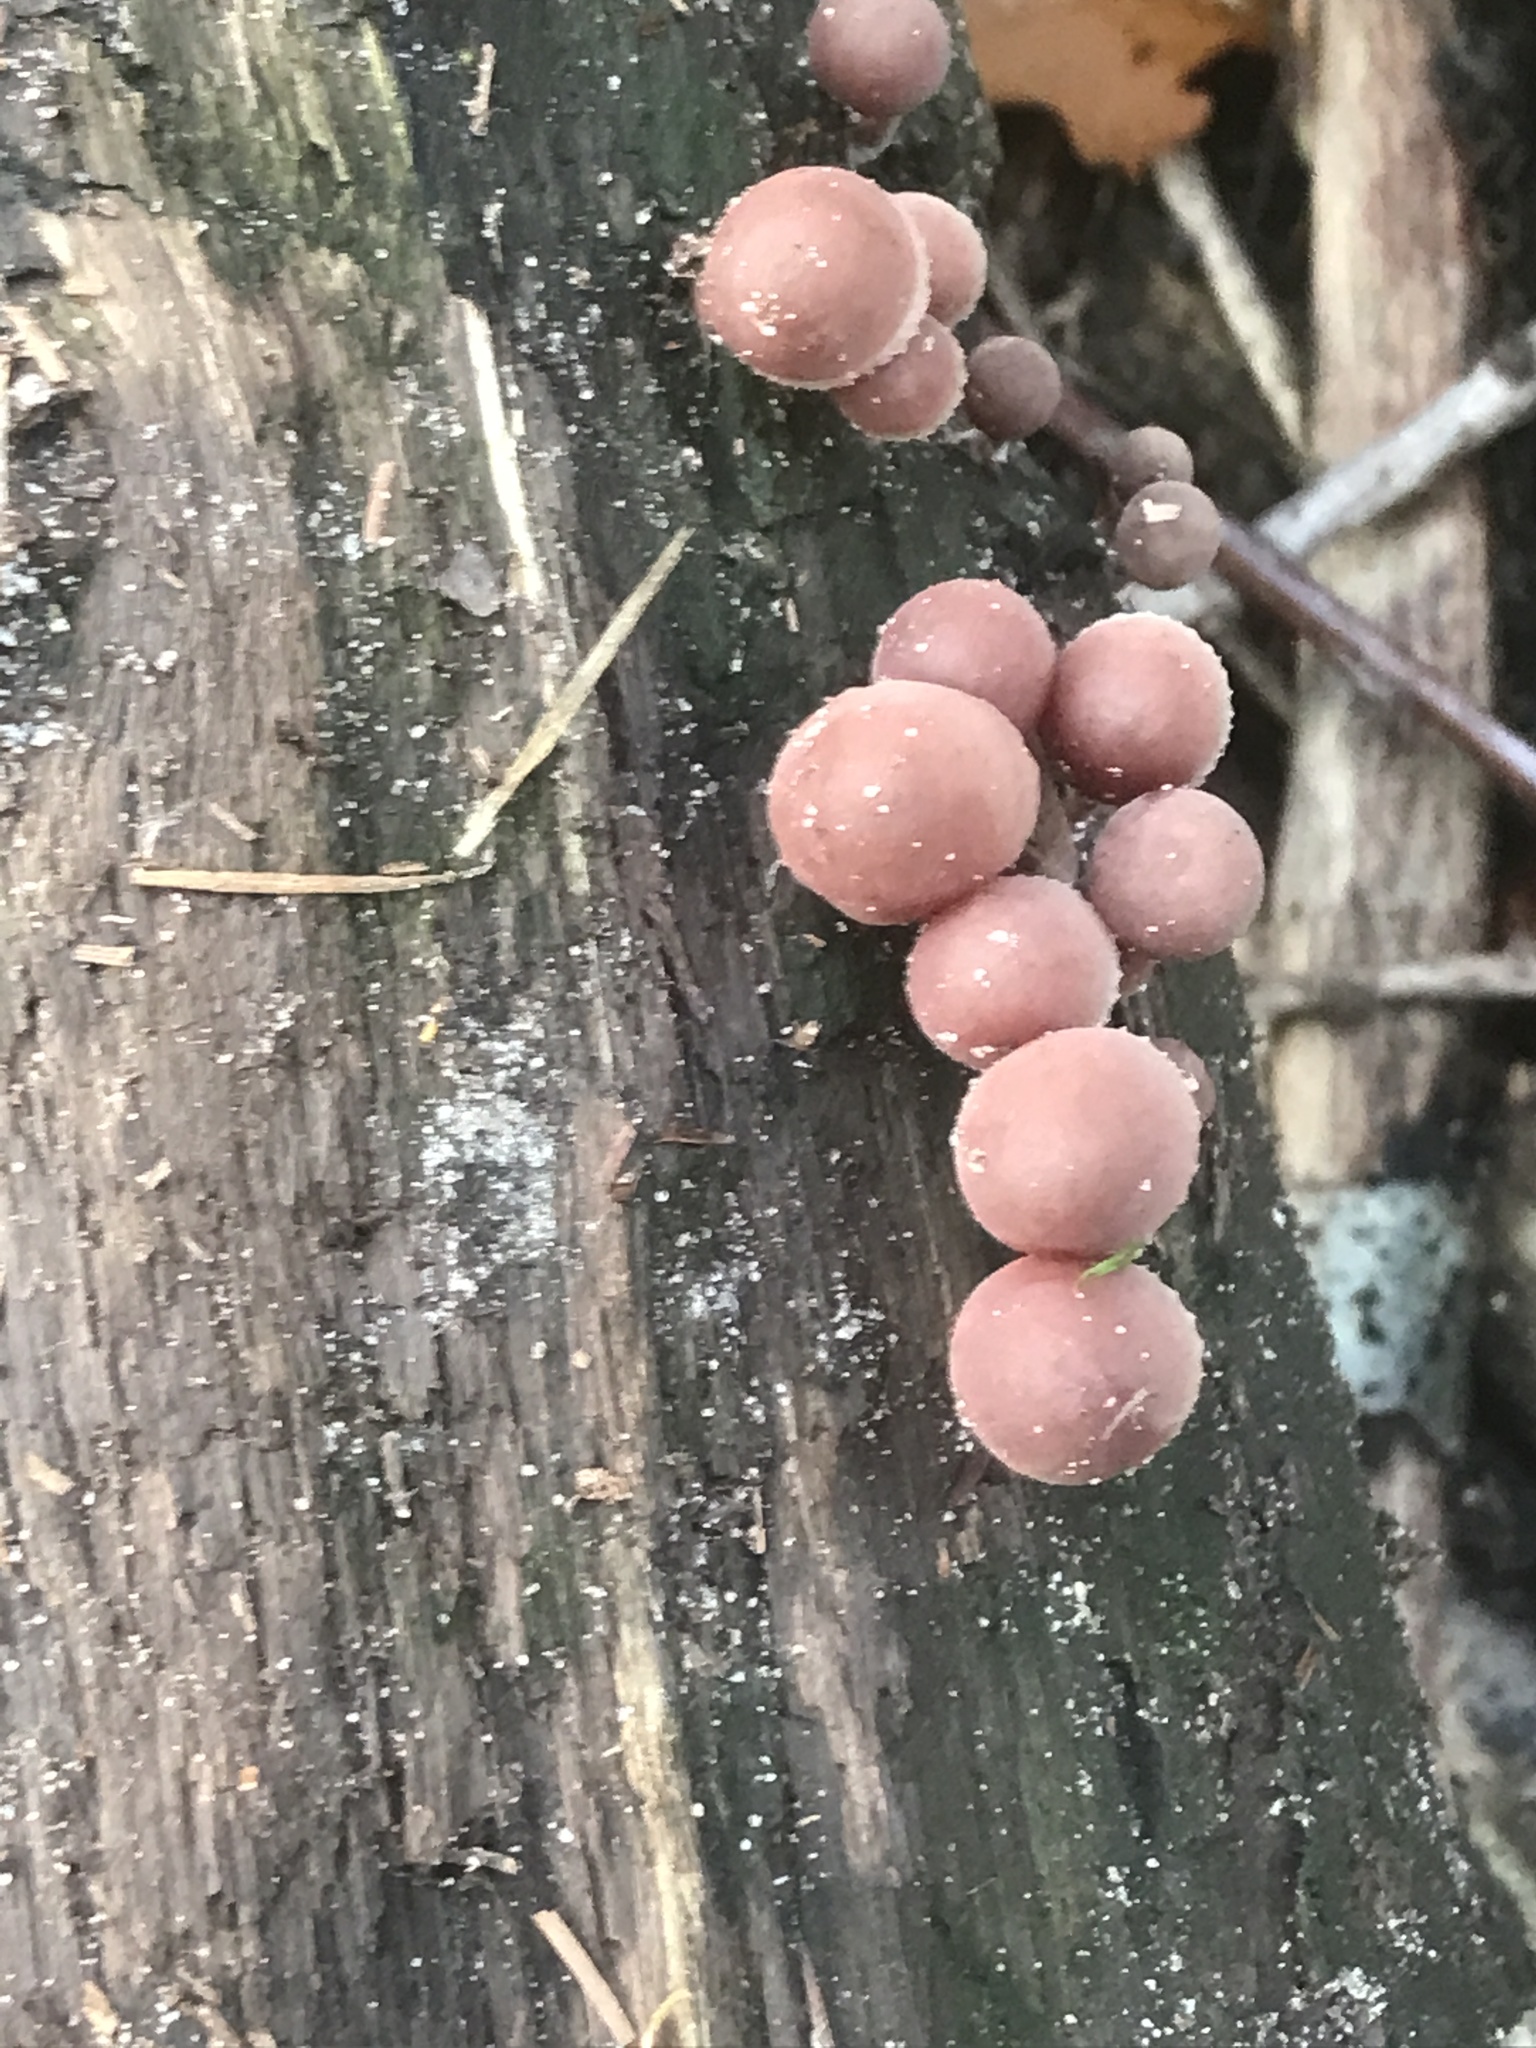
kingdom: Fungi
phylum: Basidiomycota
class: Agaricomycetes
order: Agaricales
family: Mycenaceae
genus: Mycena
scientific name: Mycena haematopus
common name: Burgundydrop bonnet
